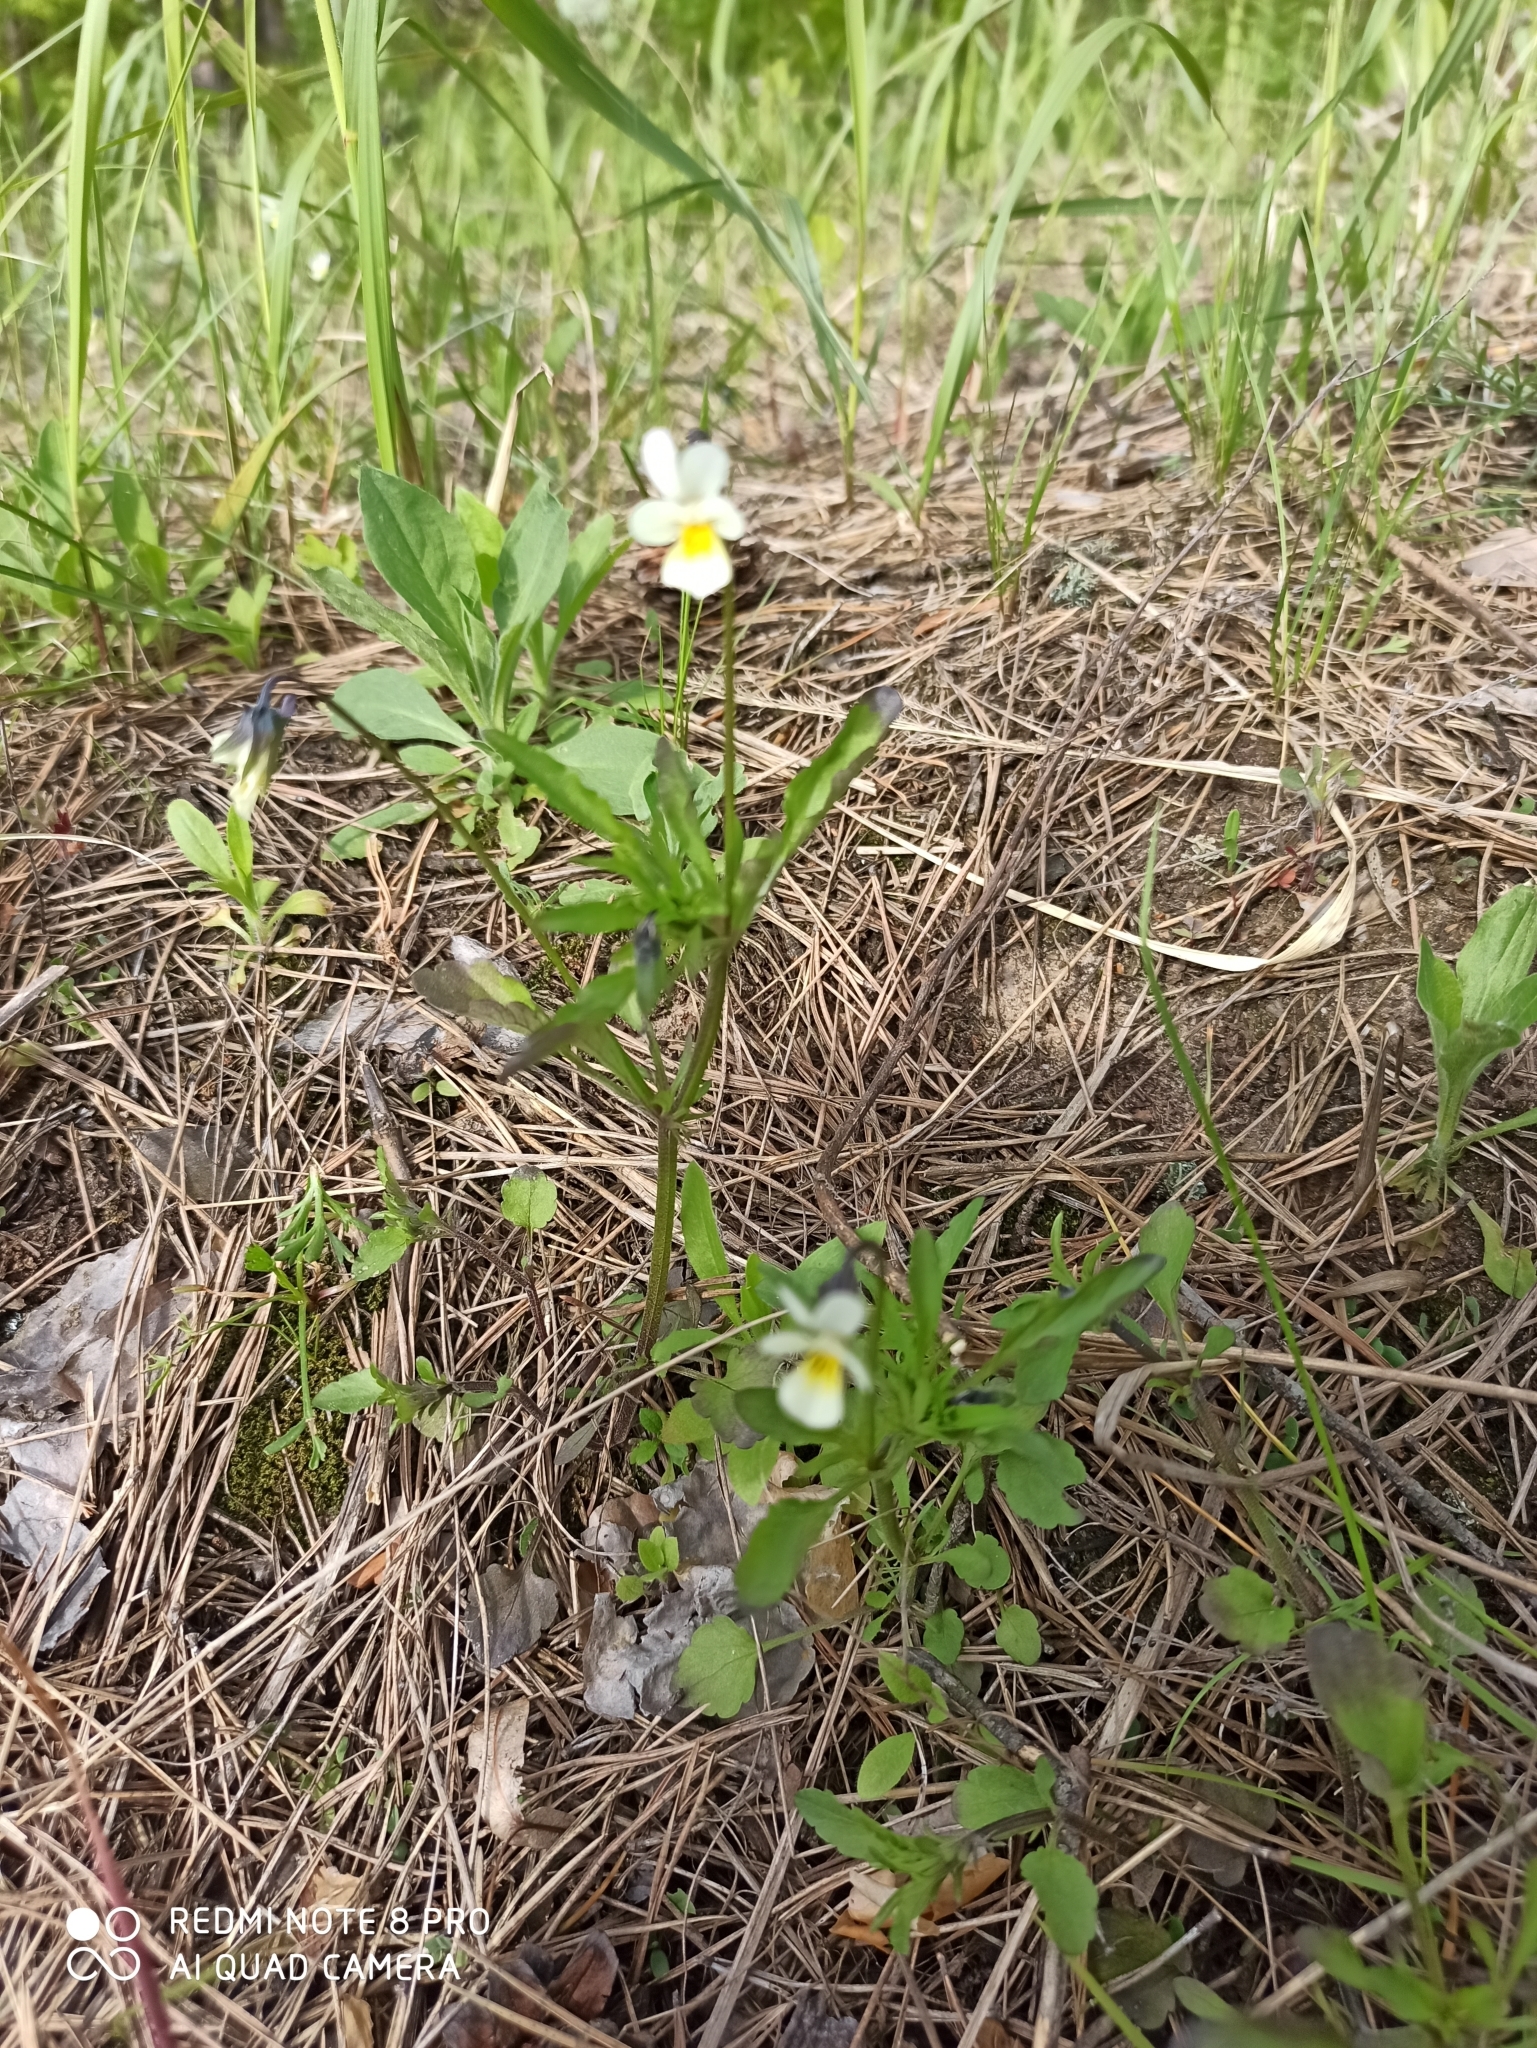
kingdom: Plantae
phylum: Tracheophyta
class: Magnoliopsida
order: Malpighiales
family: Violaceae
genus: Viola
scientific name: Viola arvensis
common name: Field pansy
